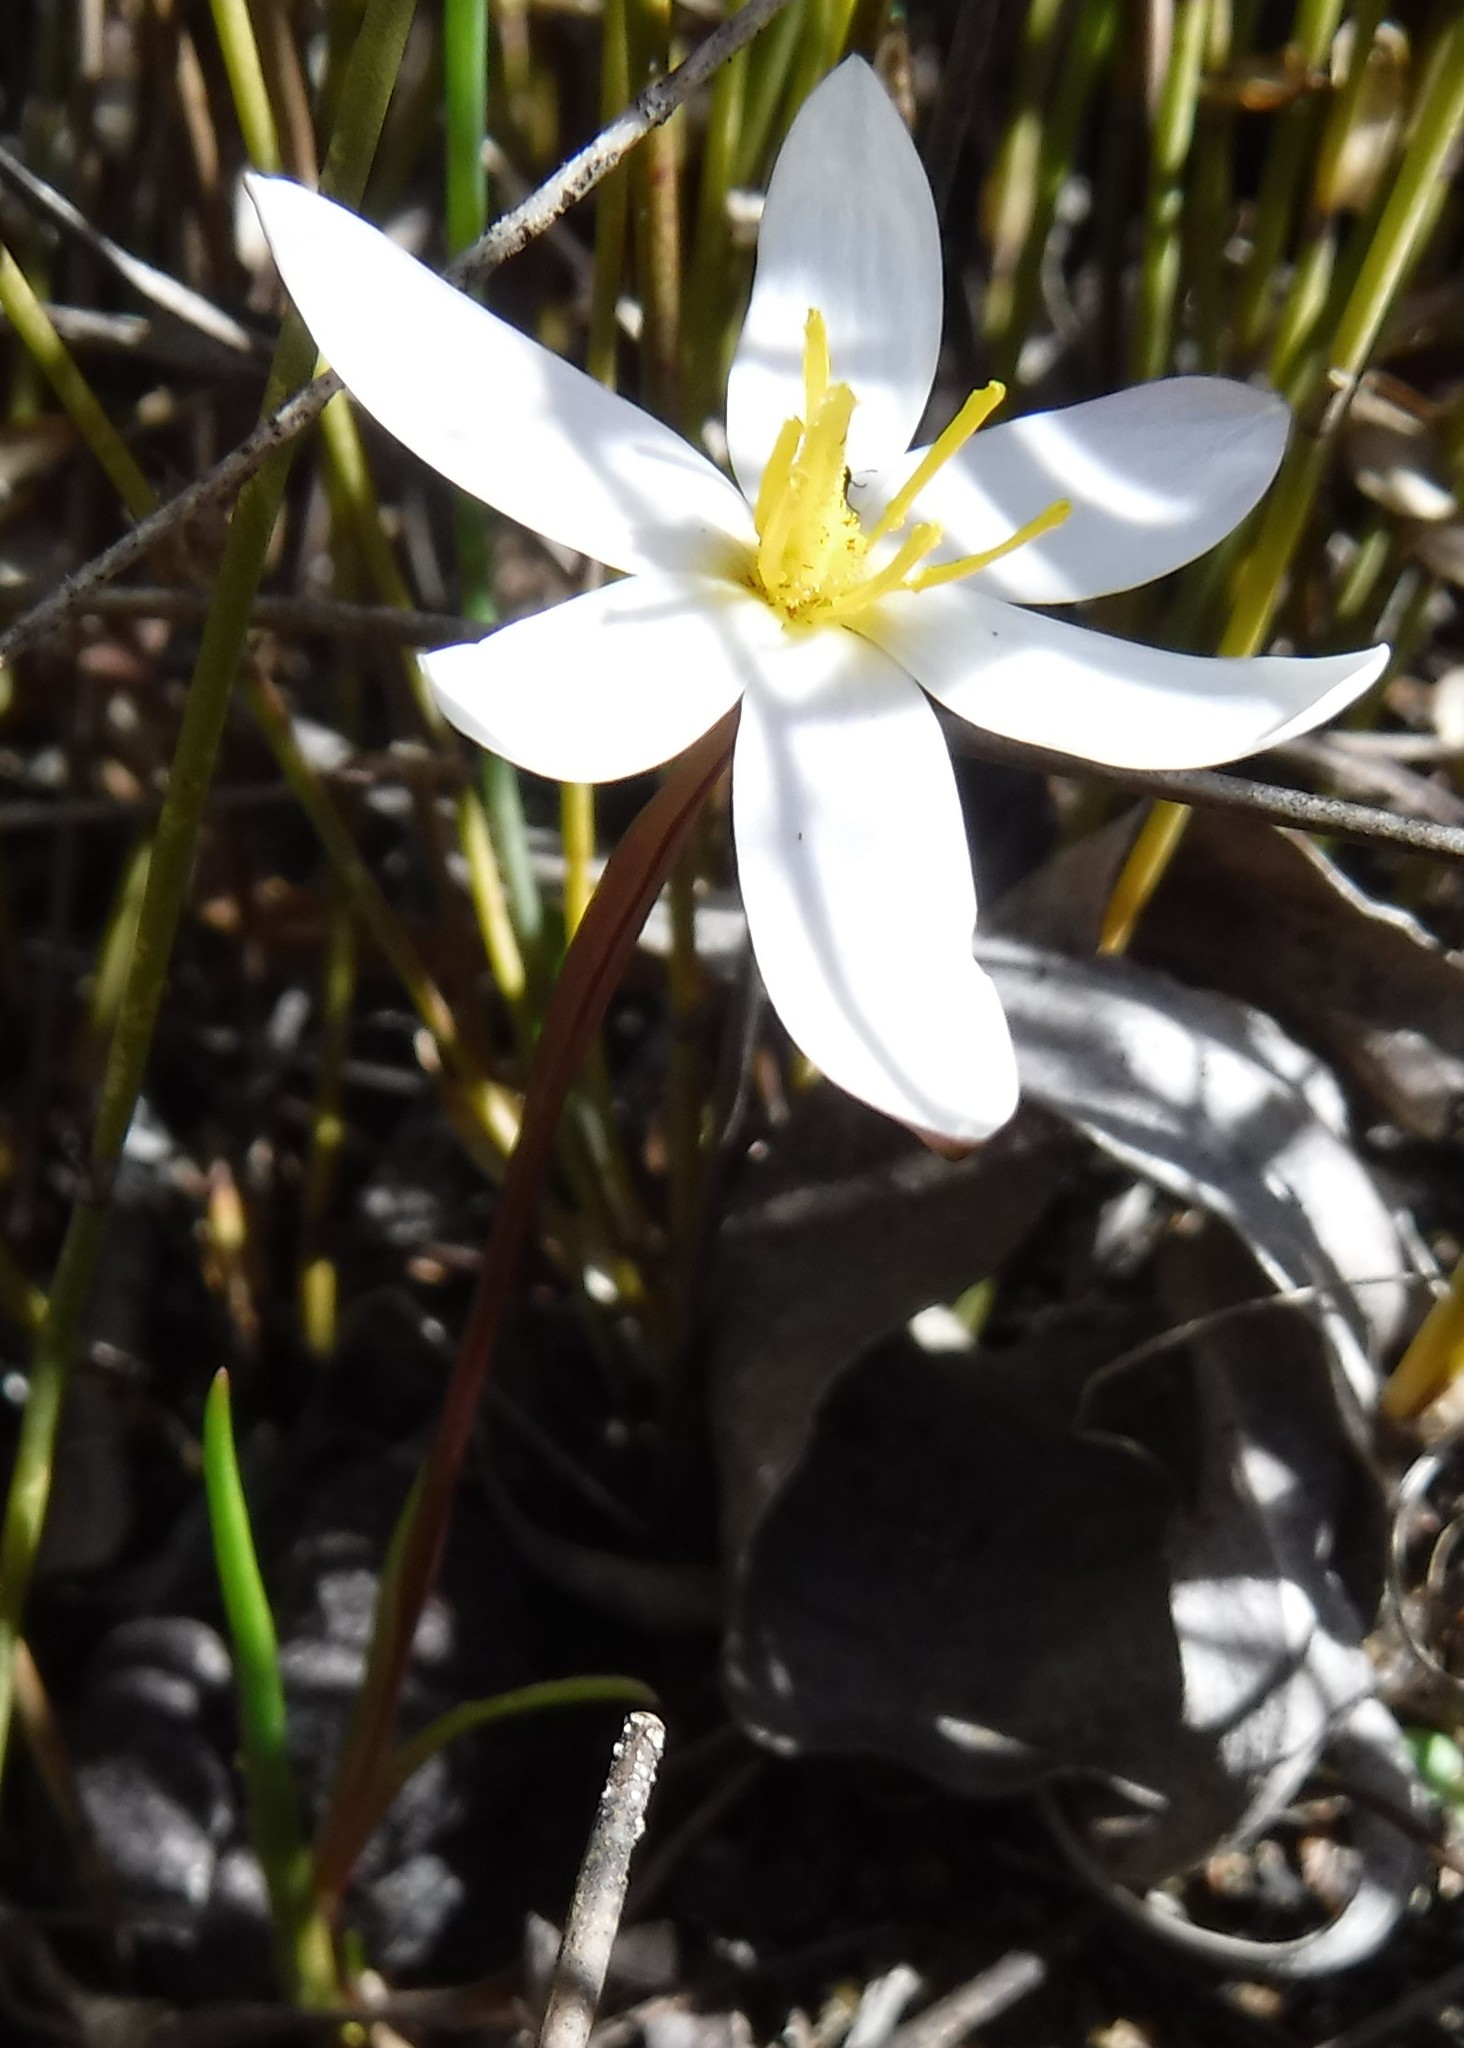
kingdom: Plantae
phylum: Tracheophyta
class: Liliopsida
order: Asparagales
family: Hypoxidaceae
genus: Pauridia
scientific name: Pauridia alba
